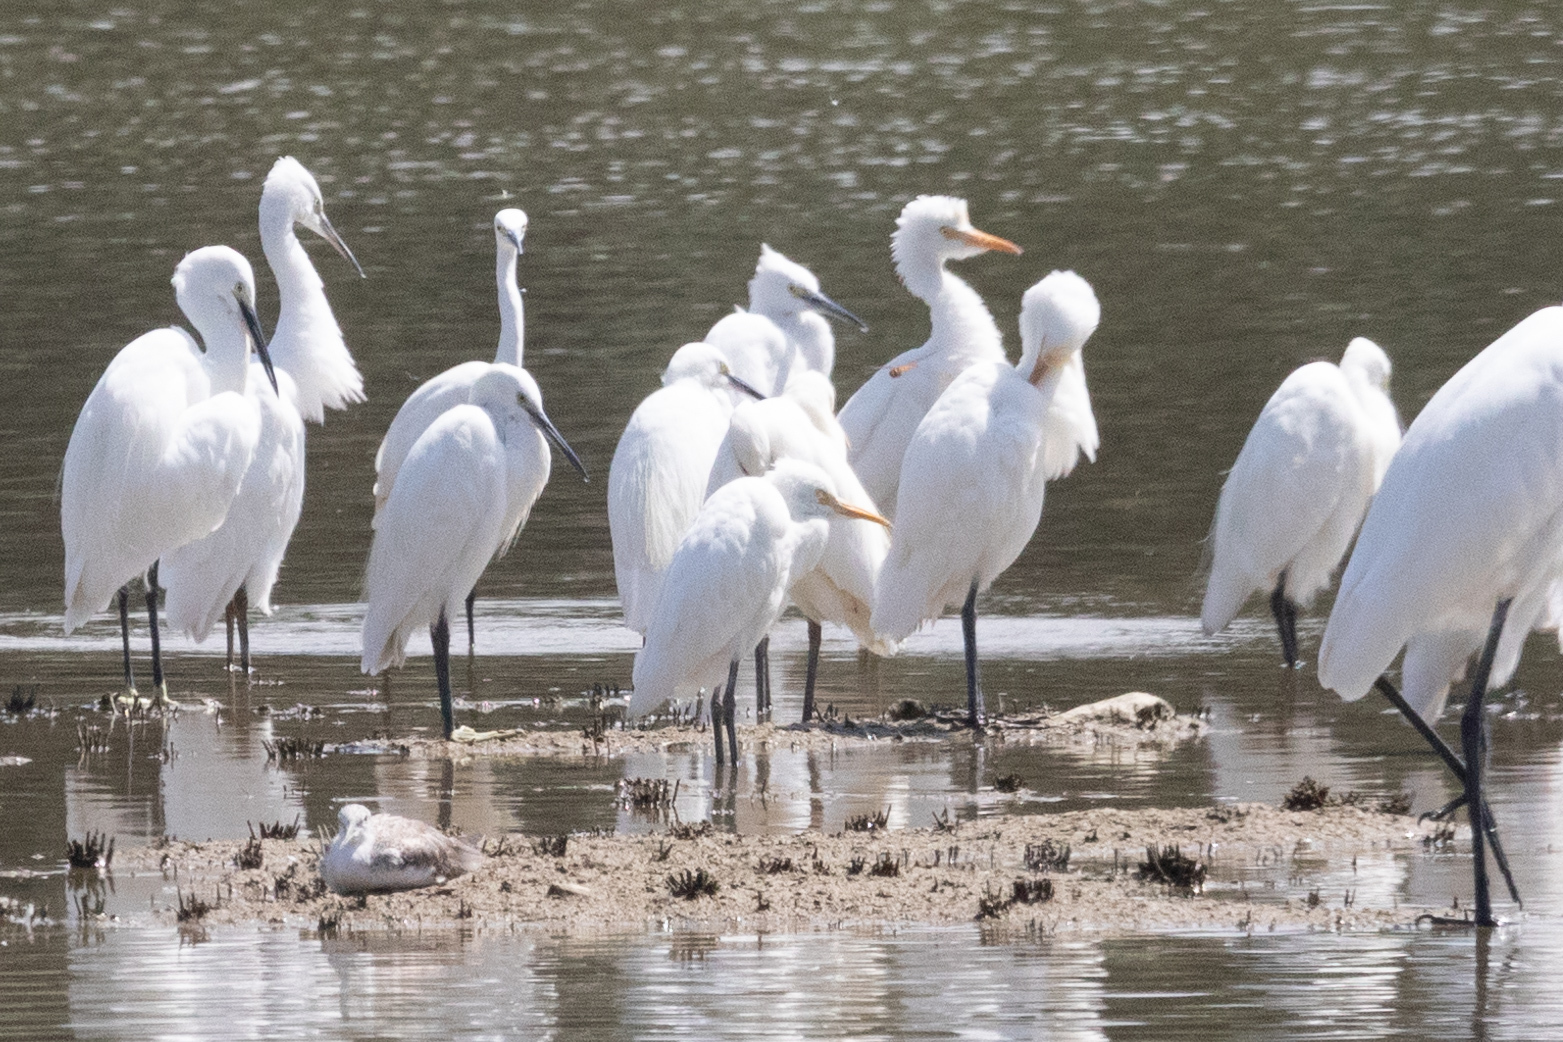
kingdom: Animalia
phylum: Chordata
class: Aves
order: Pelecaniformes
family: Ardeidae
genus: Bubulcus
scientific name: Bubulcus coromandus
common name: Eastern cattle egret
